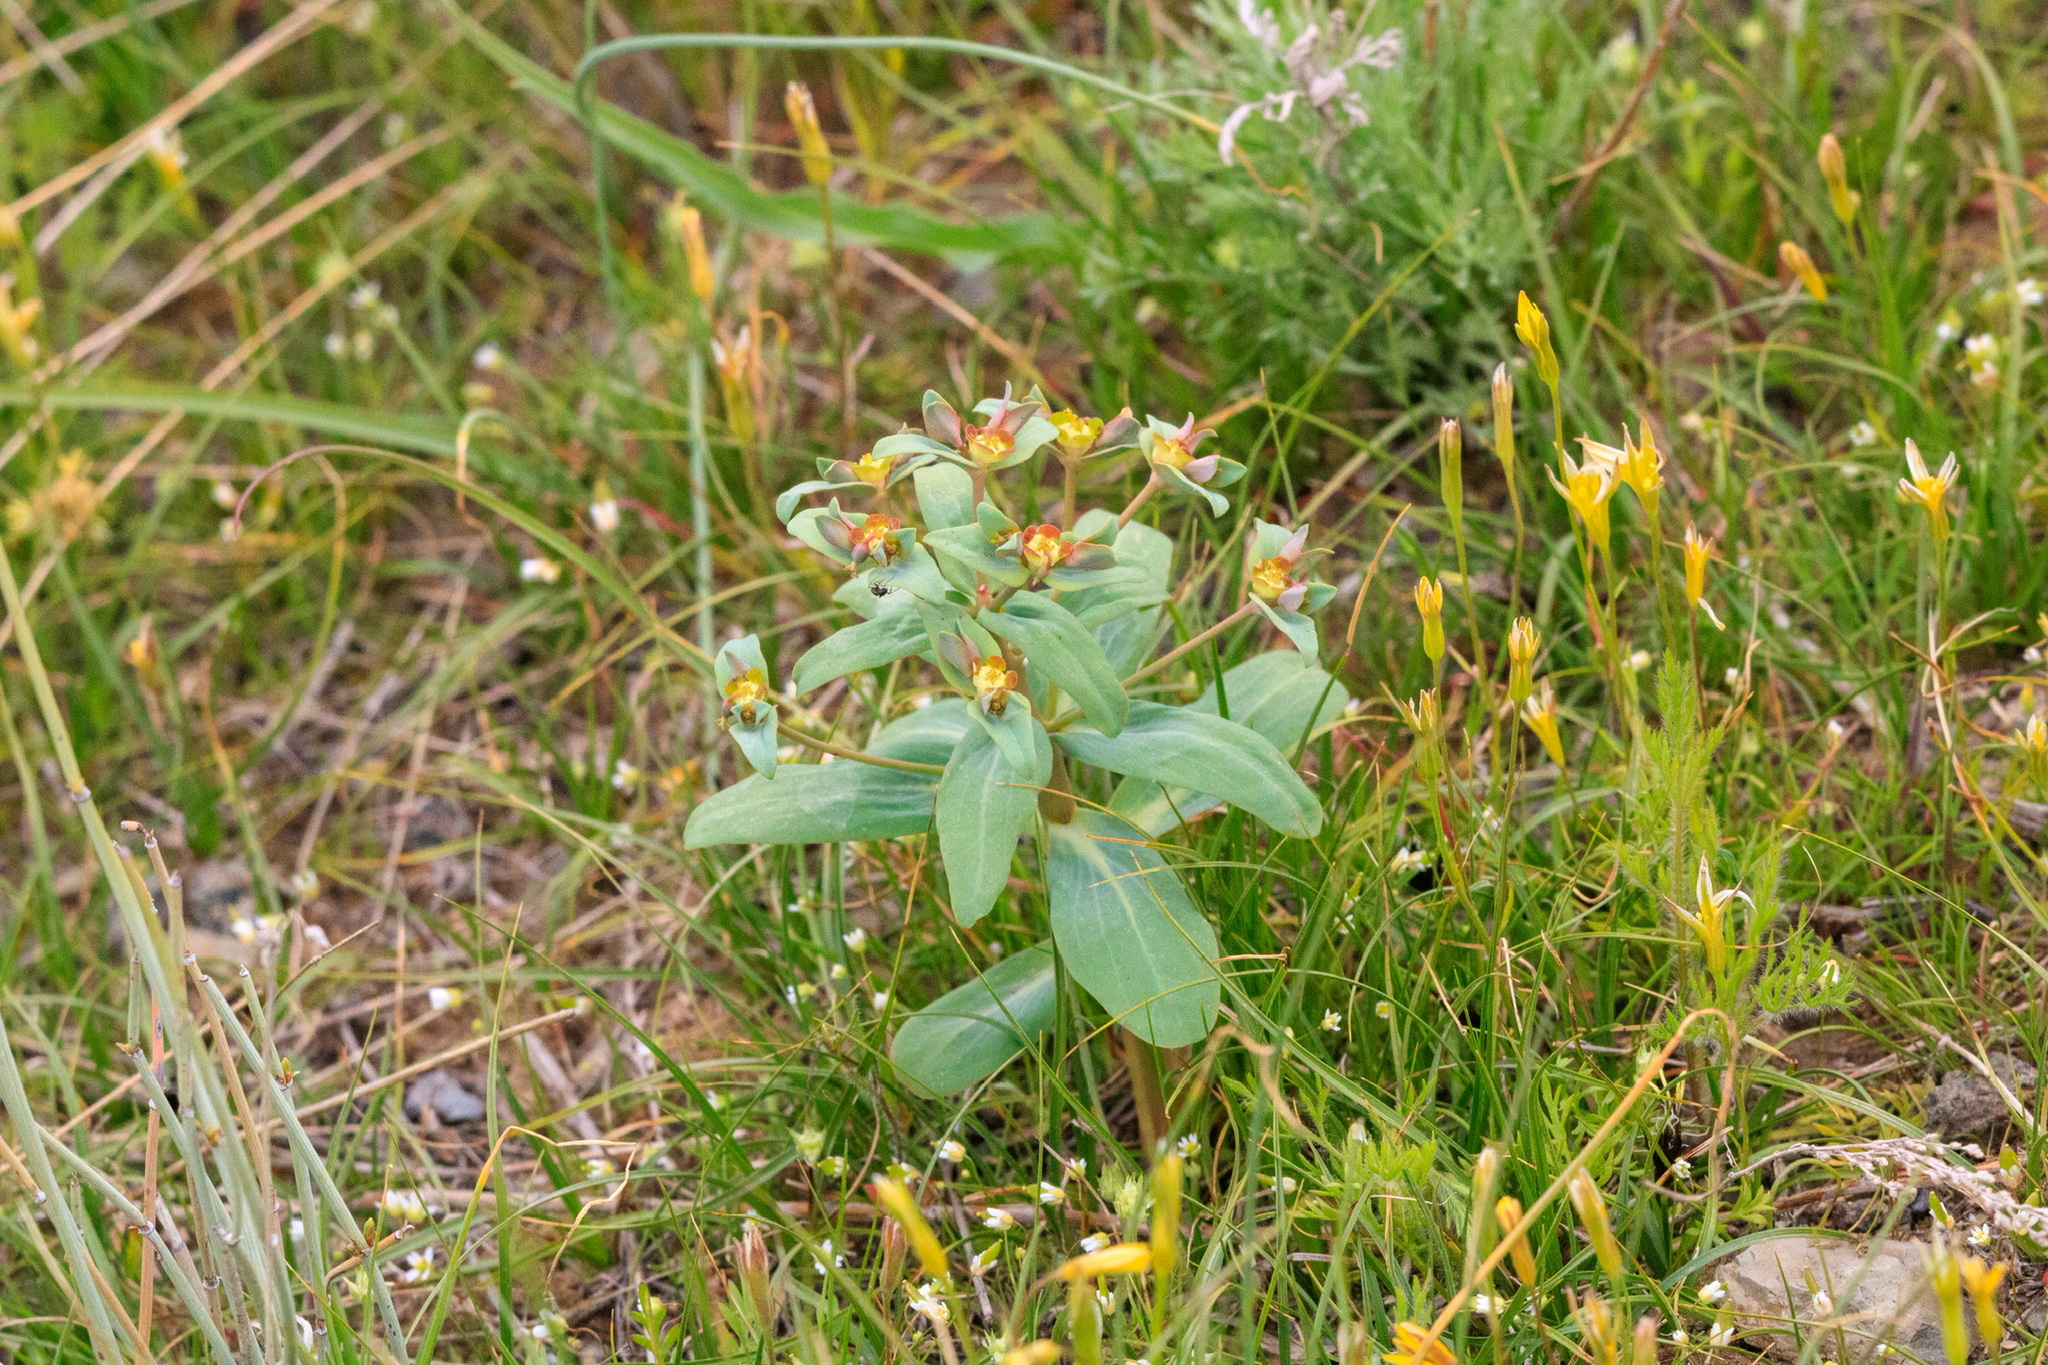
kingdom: Plantae
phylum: Tracheophyta
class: Magnoliopsida
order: Malpighiales
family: Euphorbiaceae
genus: Euphorbia
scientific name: Euphorbia rapulum
